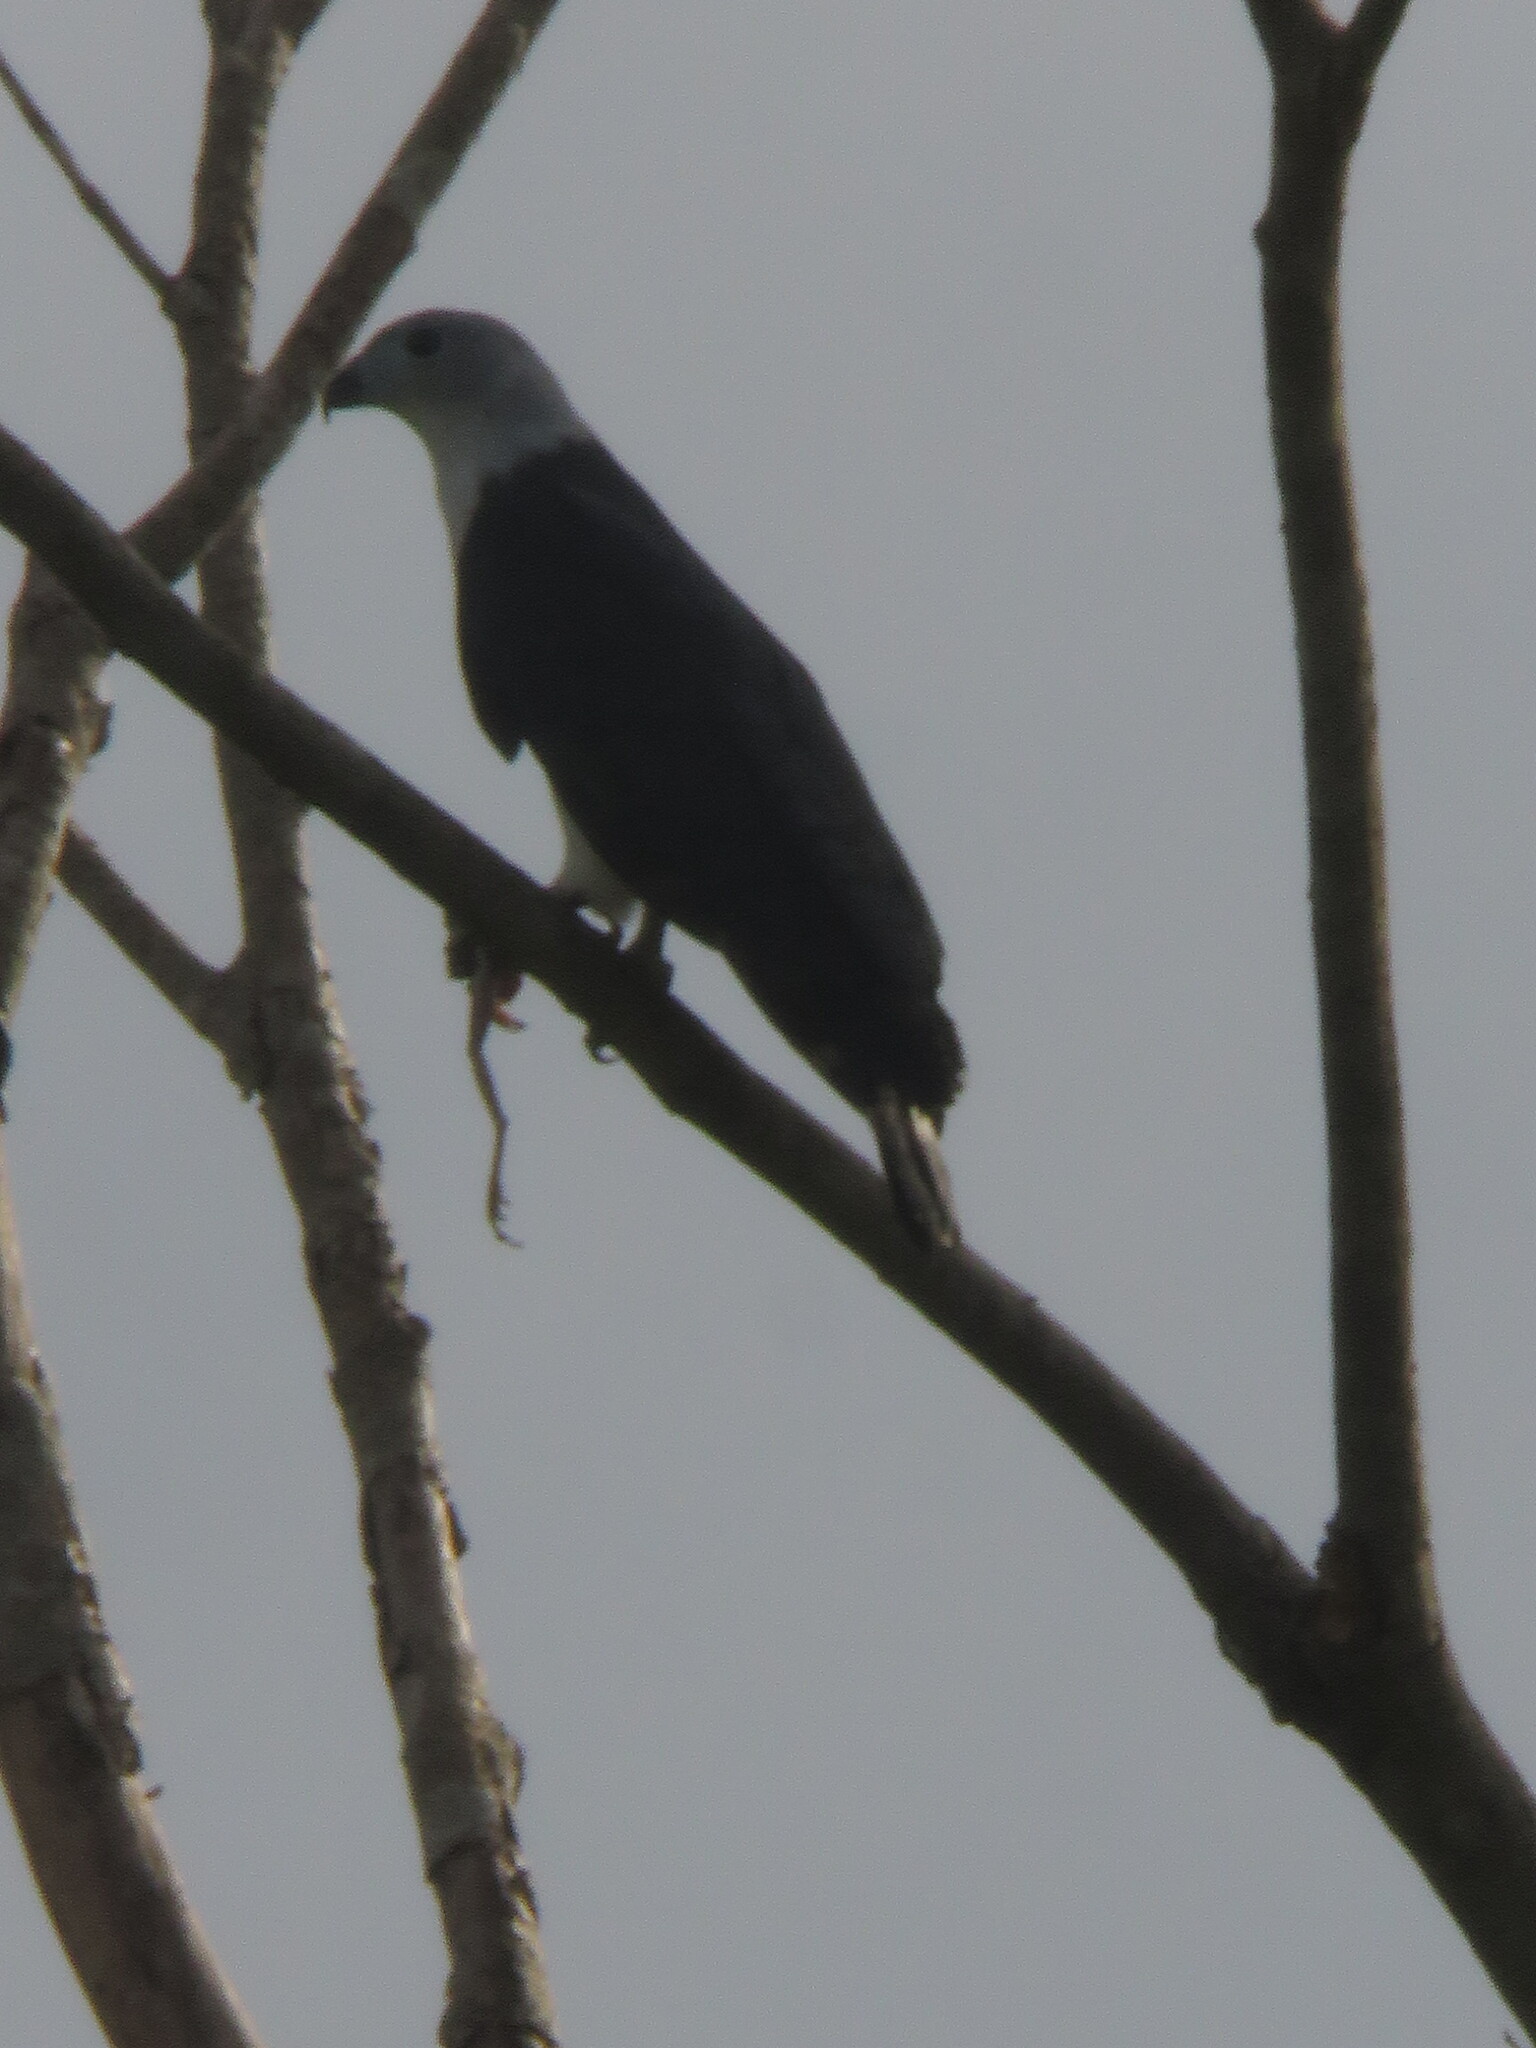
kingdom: Animalia
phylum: Chordata
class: Aves
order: Accipitriformes
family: Accipitridae
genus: Leptodon
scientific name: Leptodon cayanensis
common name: Gray-headed kite
